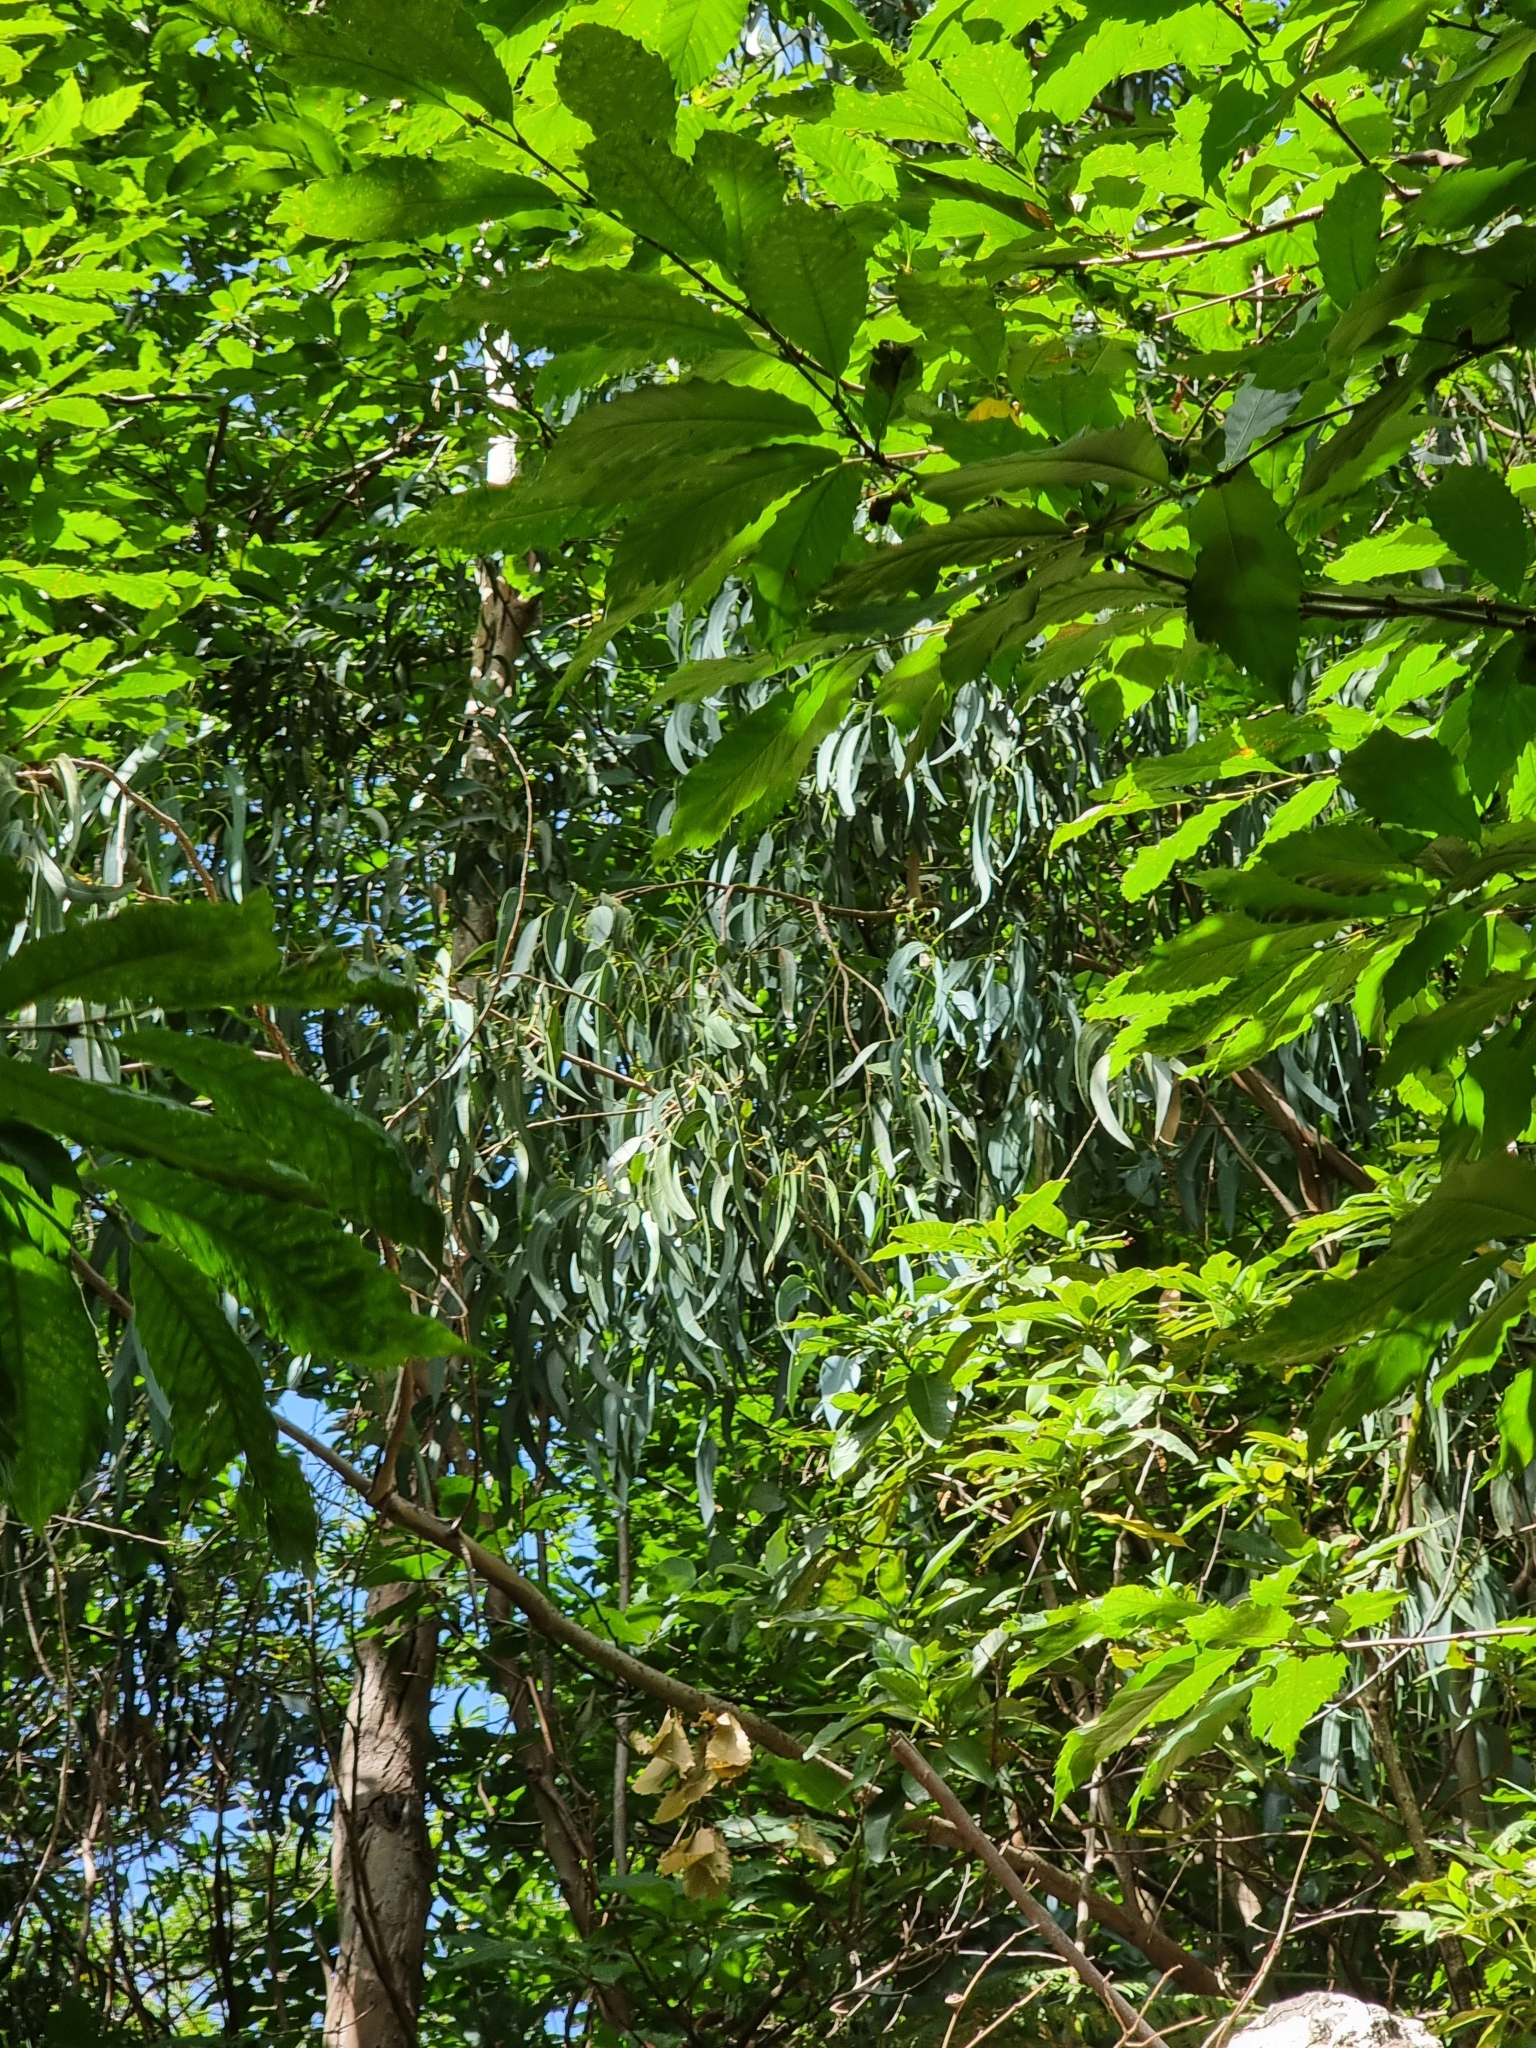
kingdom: Plantae
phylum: Tracheophyta
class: Magnoliopsida
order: Myrtales
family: Myrtaceae
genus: Eucalyptus
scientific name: Eucalyptus globulus
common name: Southern blue-gum
